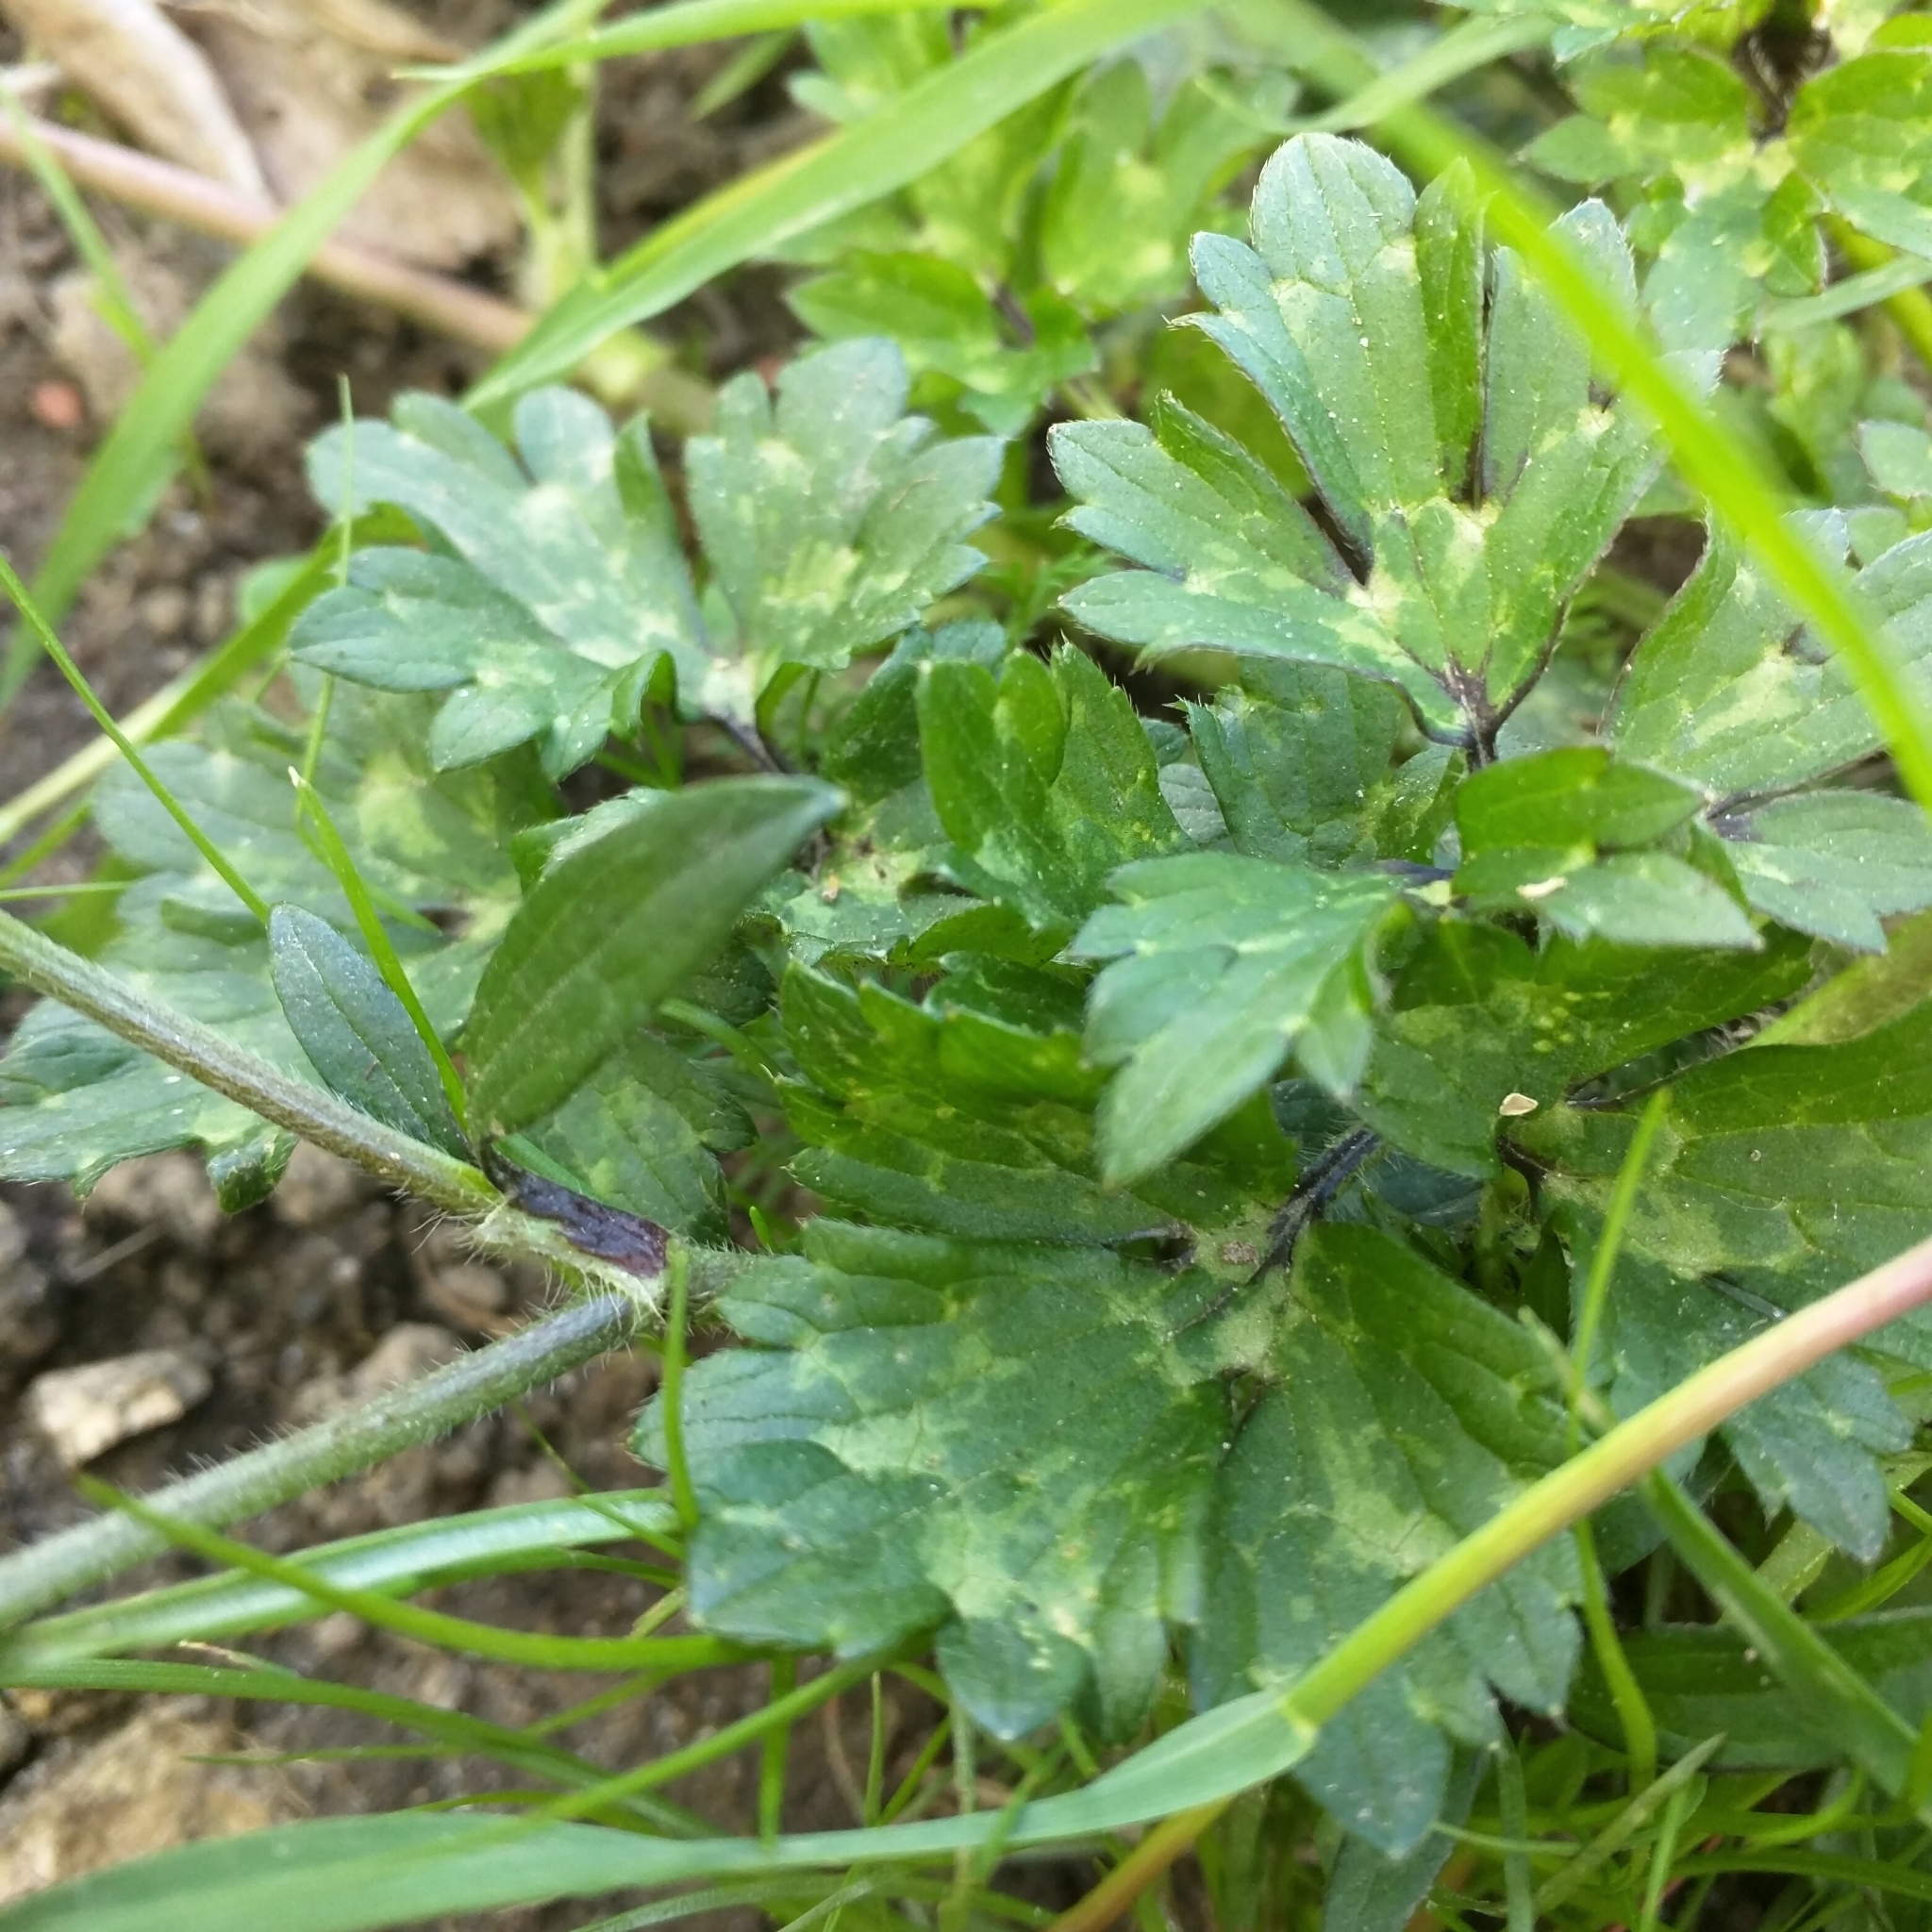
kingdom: Plantae
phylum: Tracheophyta
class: Magnoliopsida
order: Ranunculales
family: Ranunculaceae
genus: Ranunculus
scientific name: Ranunculus repens
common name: Creeping buttercup
